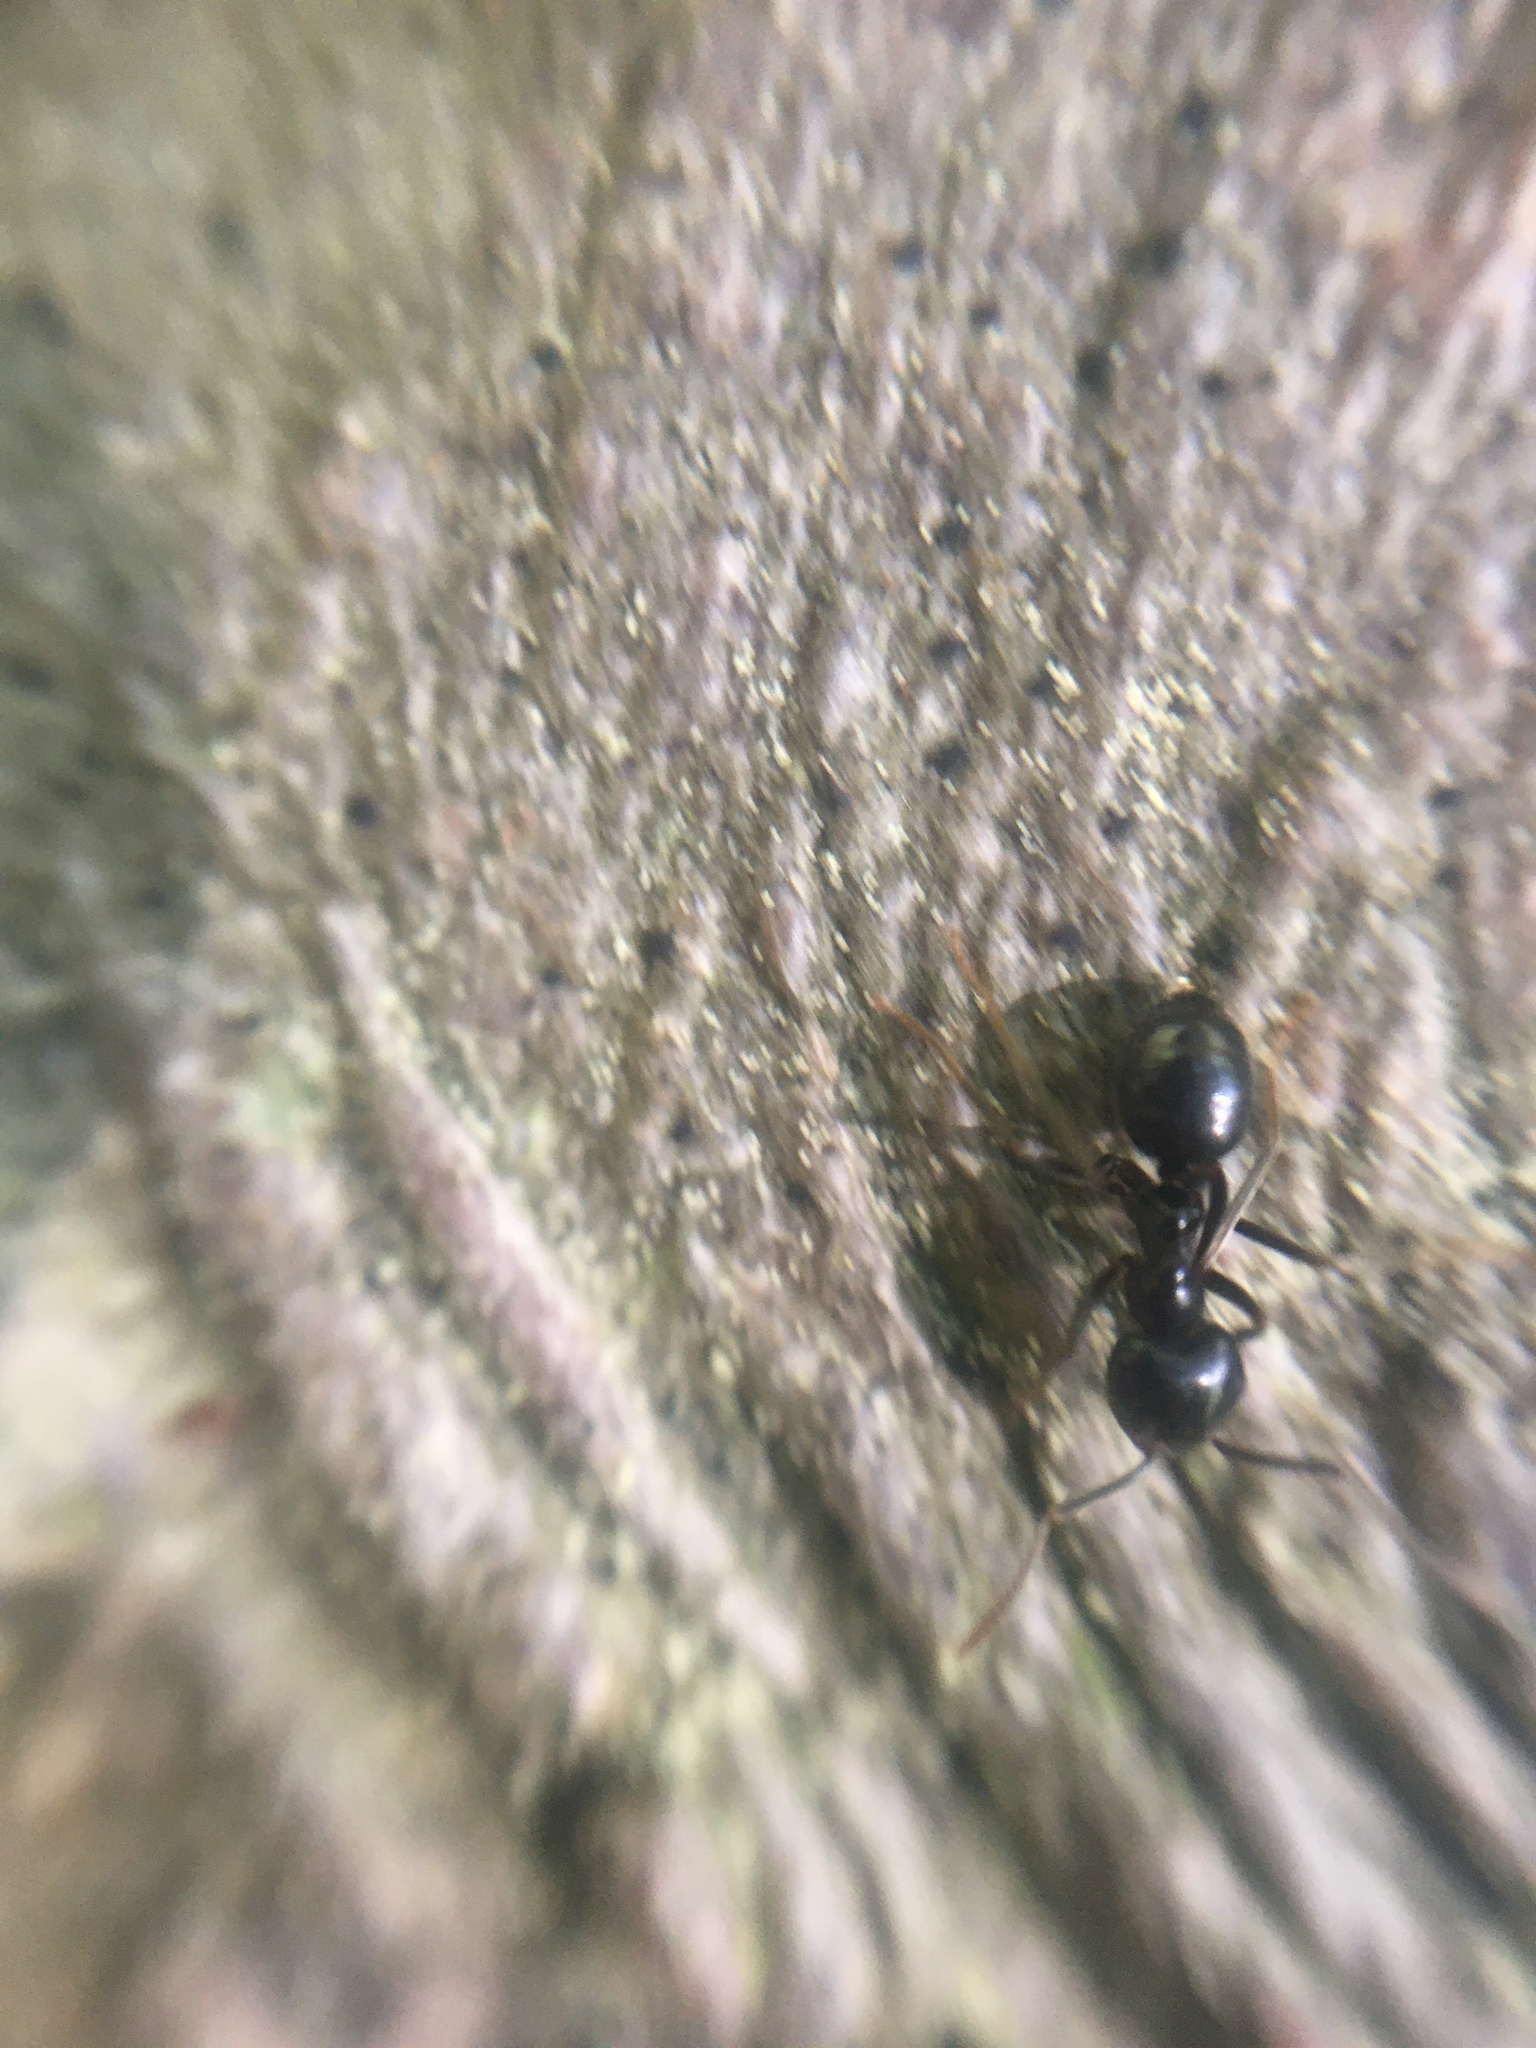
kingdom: Animalia
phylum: Arthropoda
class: Insecta
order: Hymenoptera
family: Formicidae
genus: Lasius
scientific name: Lasius fuliginosus
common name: Jet ant
